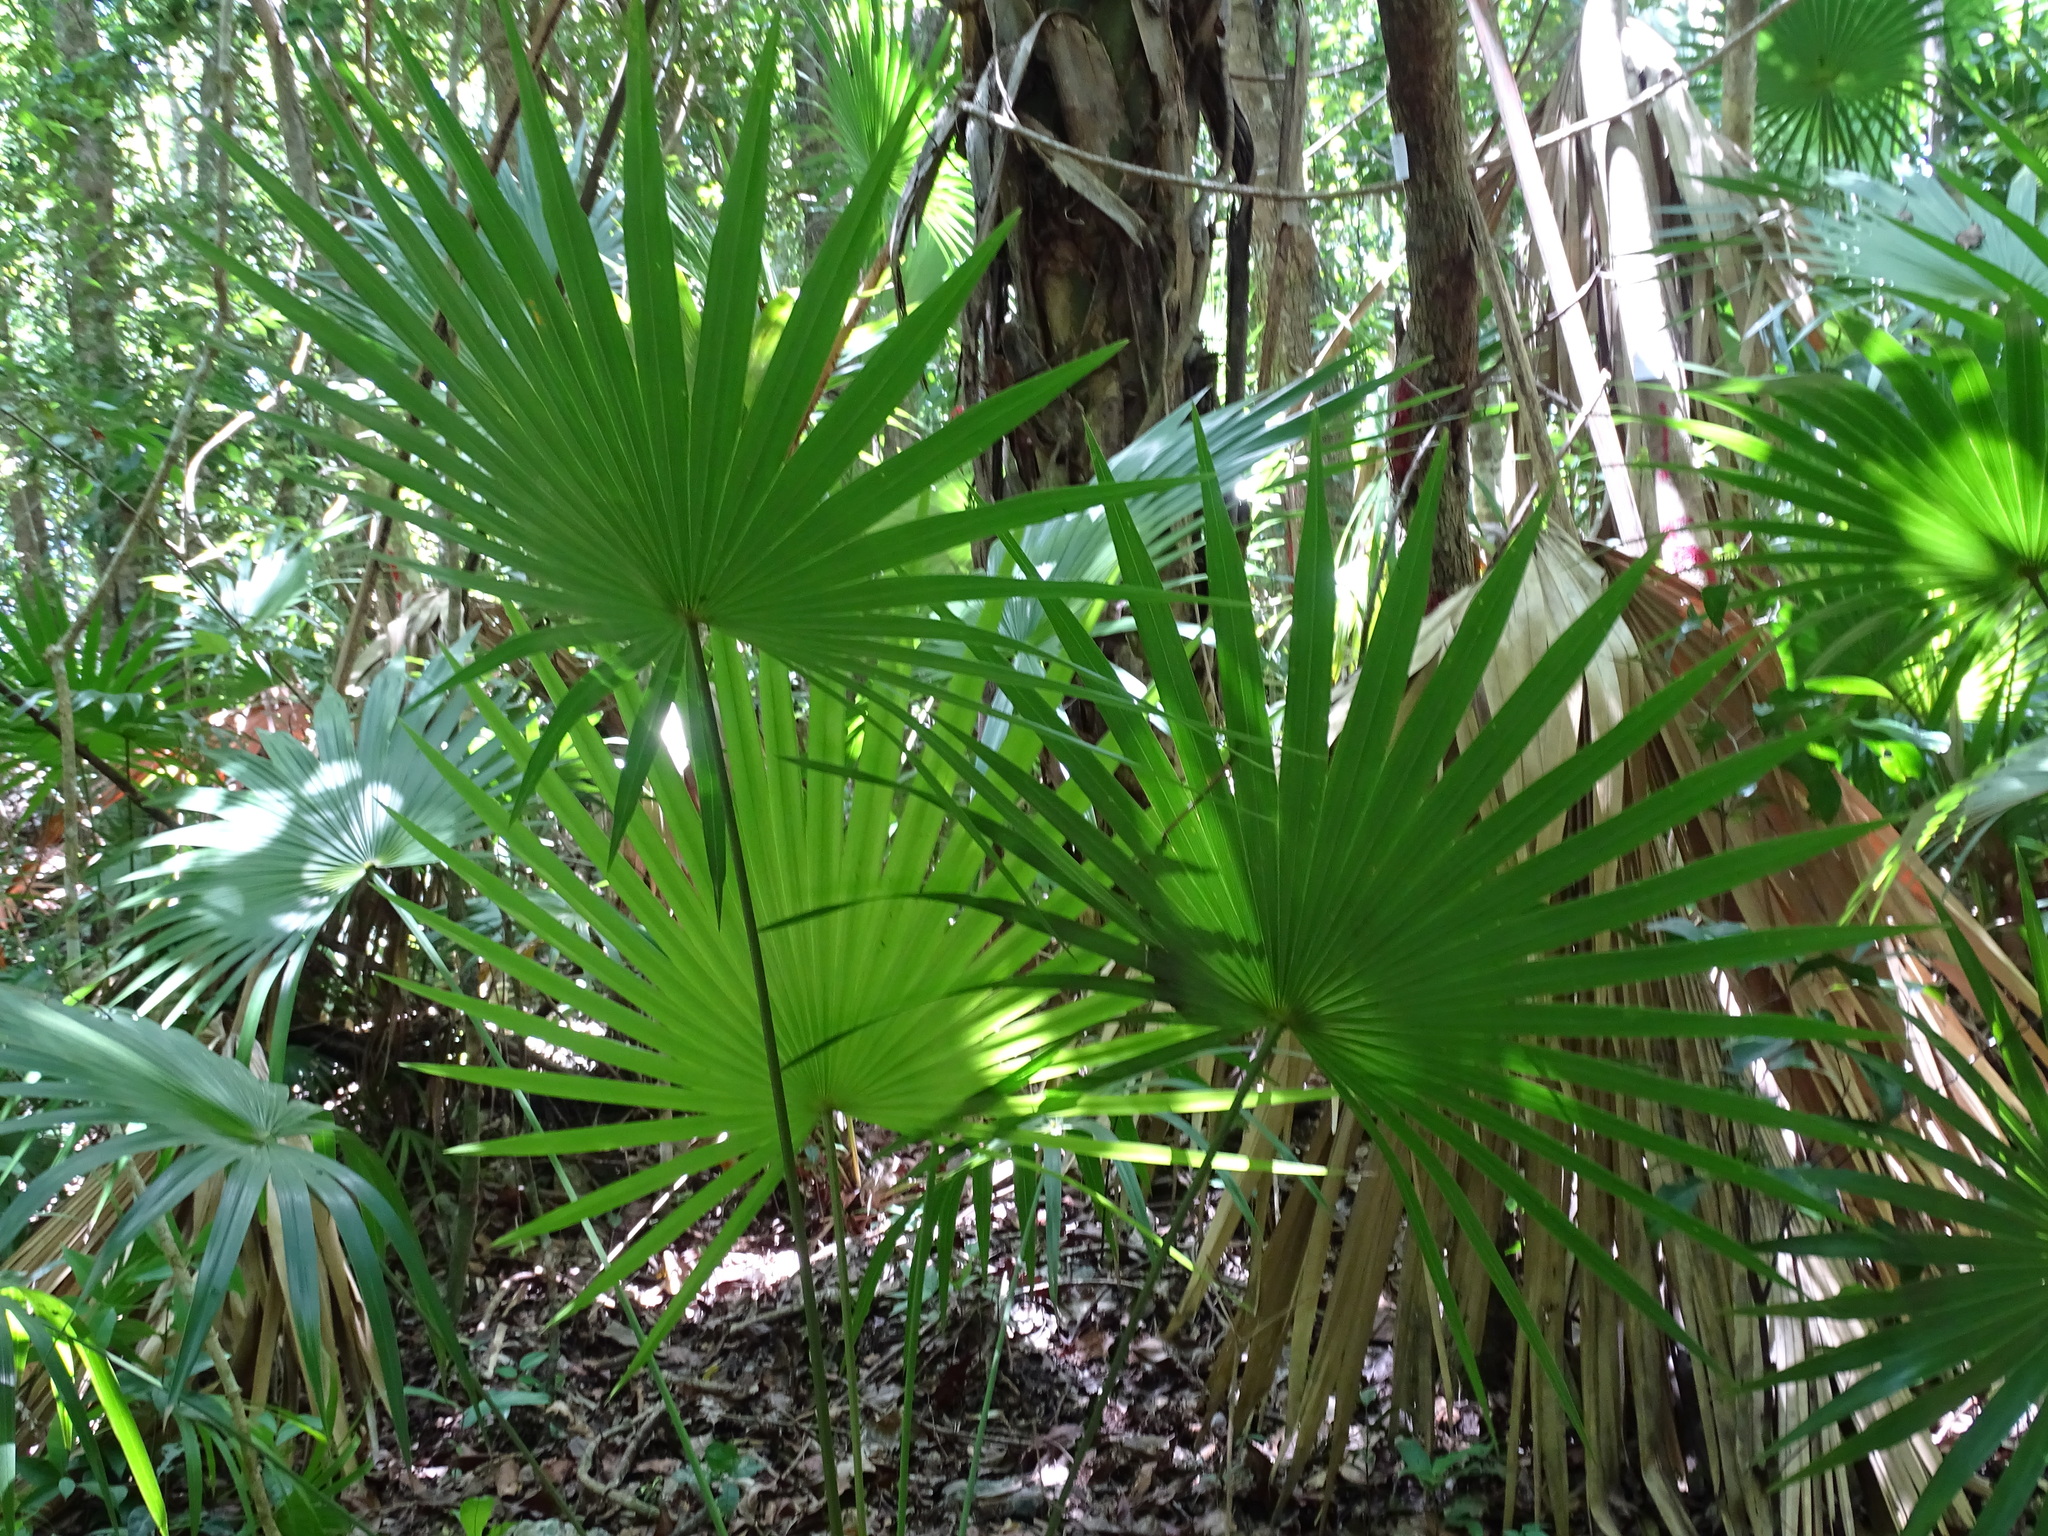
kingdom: Plantae
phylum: Tracheophyta
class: Liliopsida
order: Arecales
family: Arecaceae
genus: Thrinax
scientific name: Thrinax radiata
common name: Florida thatch
